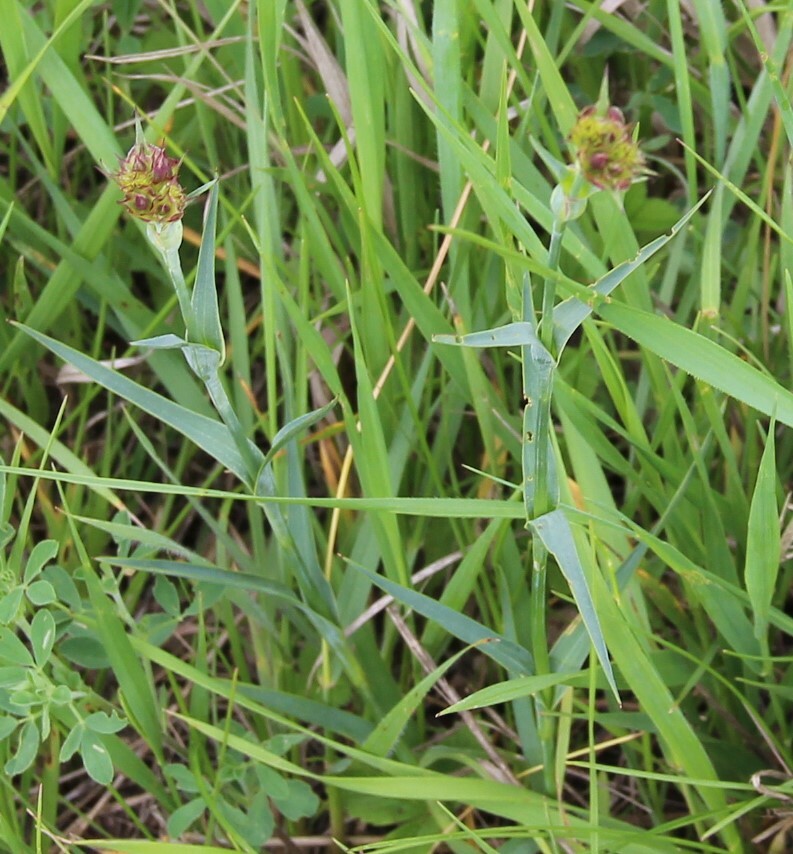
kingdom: Plantae
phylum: Tracheophyta
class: Magnoliopsida
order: Caryophyllales
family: Caryophyllaceae
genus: Dianthus
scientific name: Dianthus capitatus
